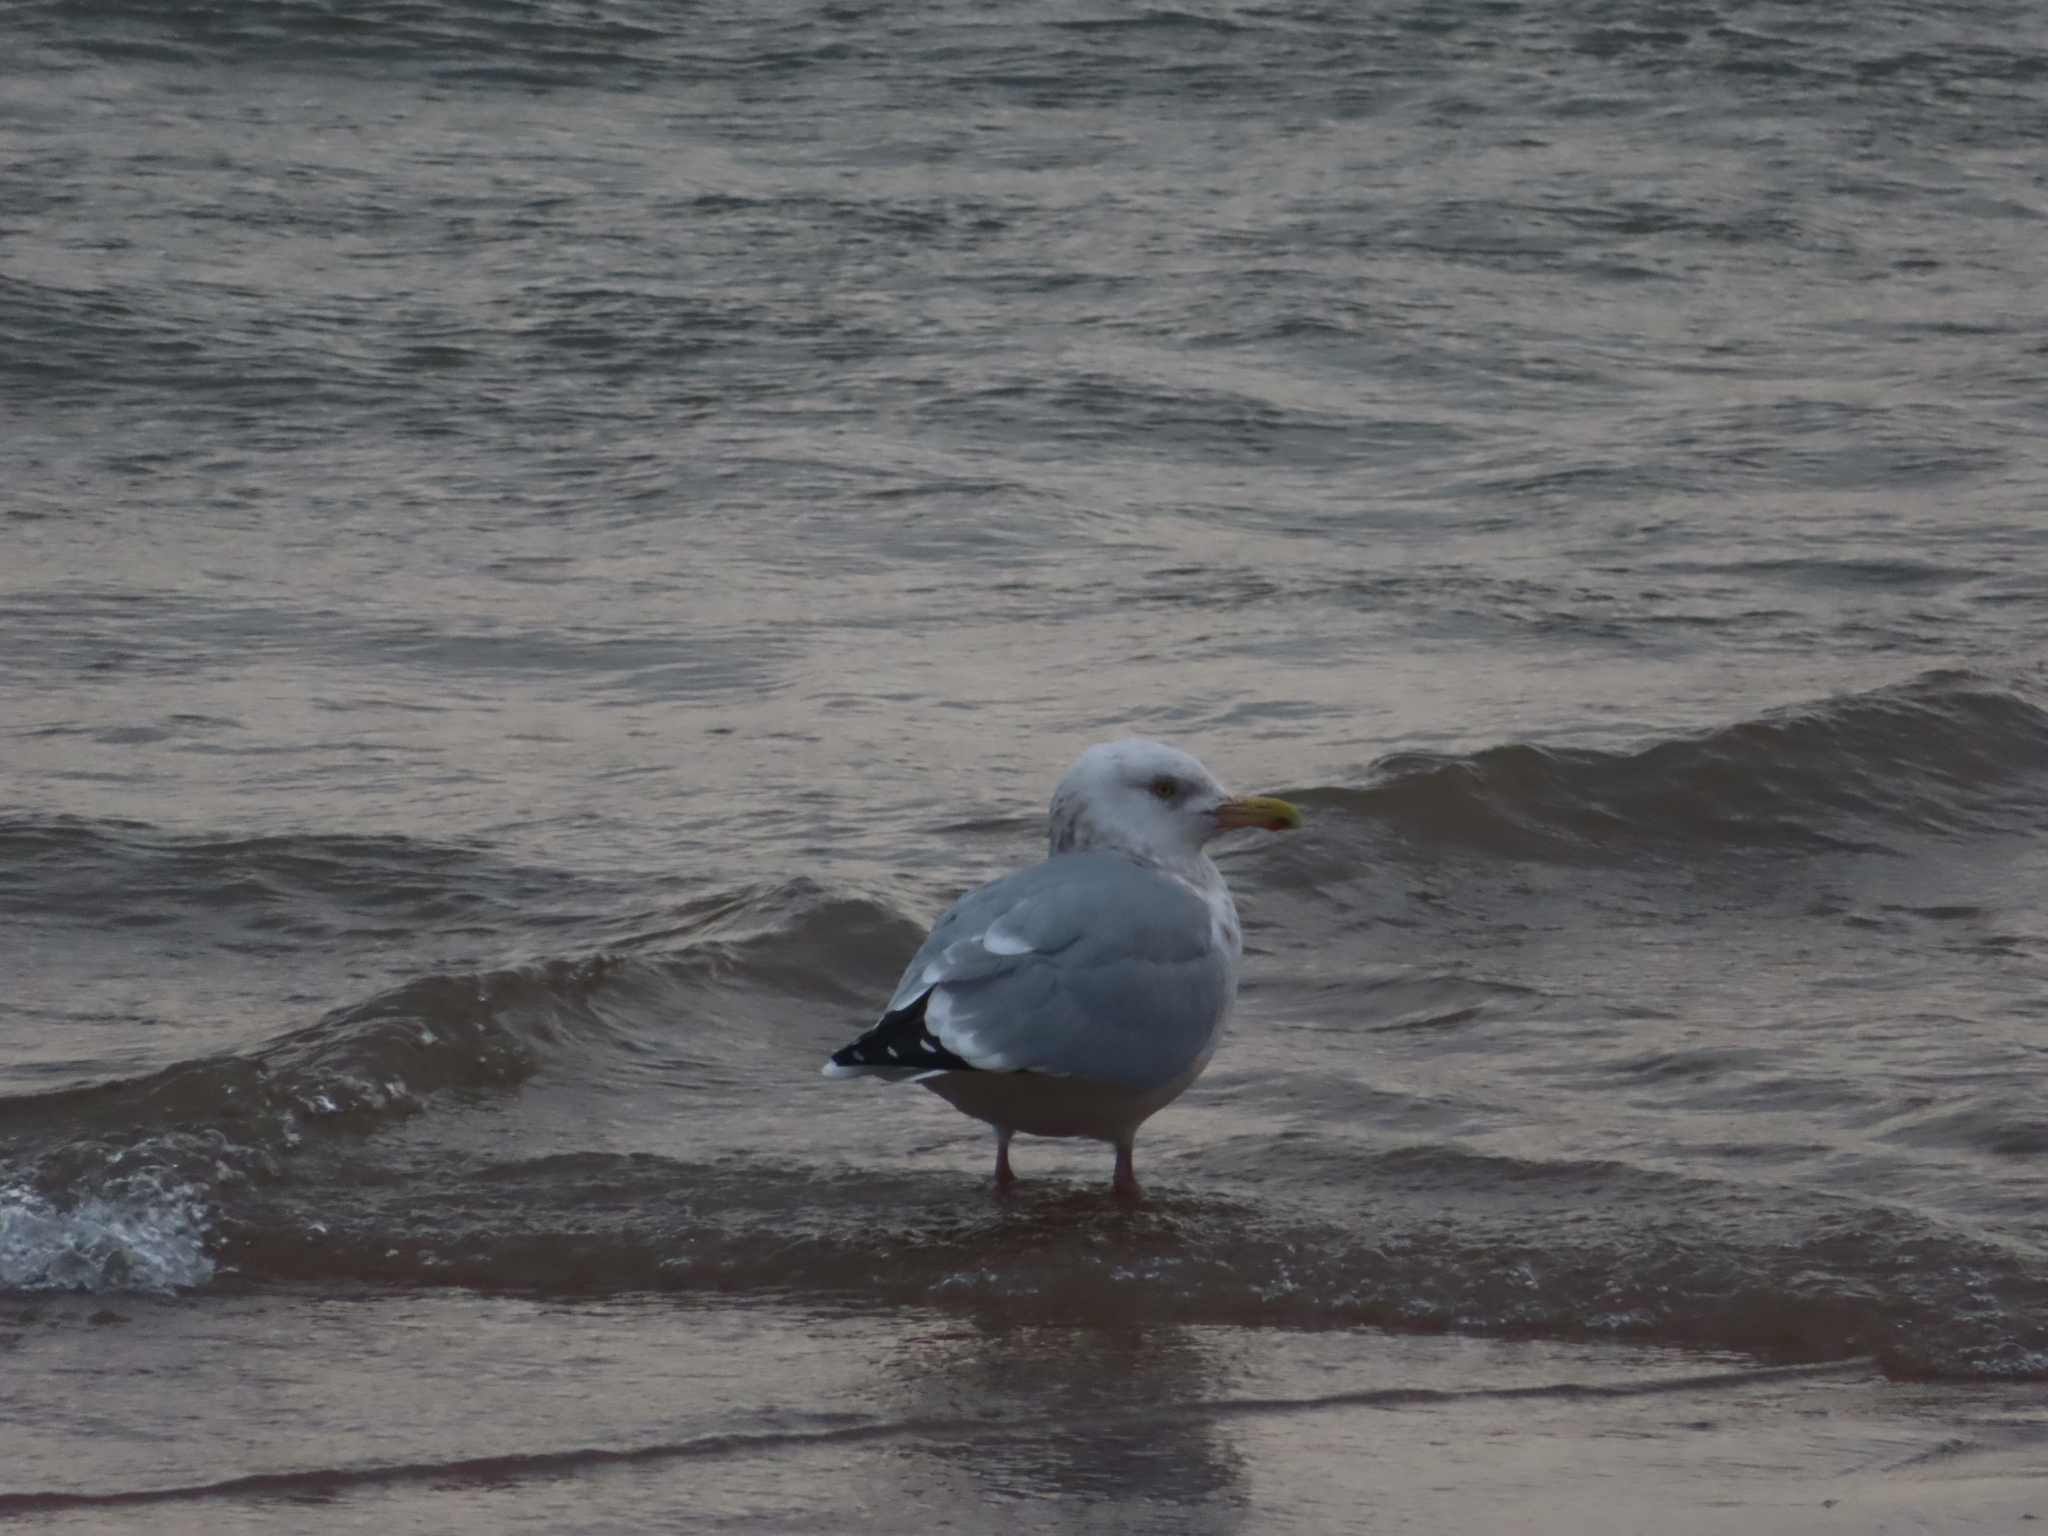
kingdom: Animalia
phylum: Chordata
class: Aves
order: Charadriiformes
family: Laridae
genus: Larus
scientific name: Larus argentatus
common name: Herring gull
